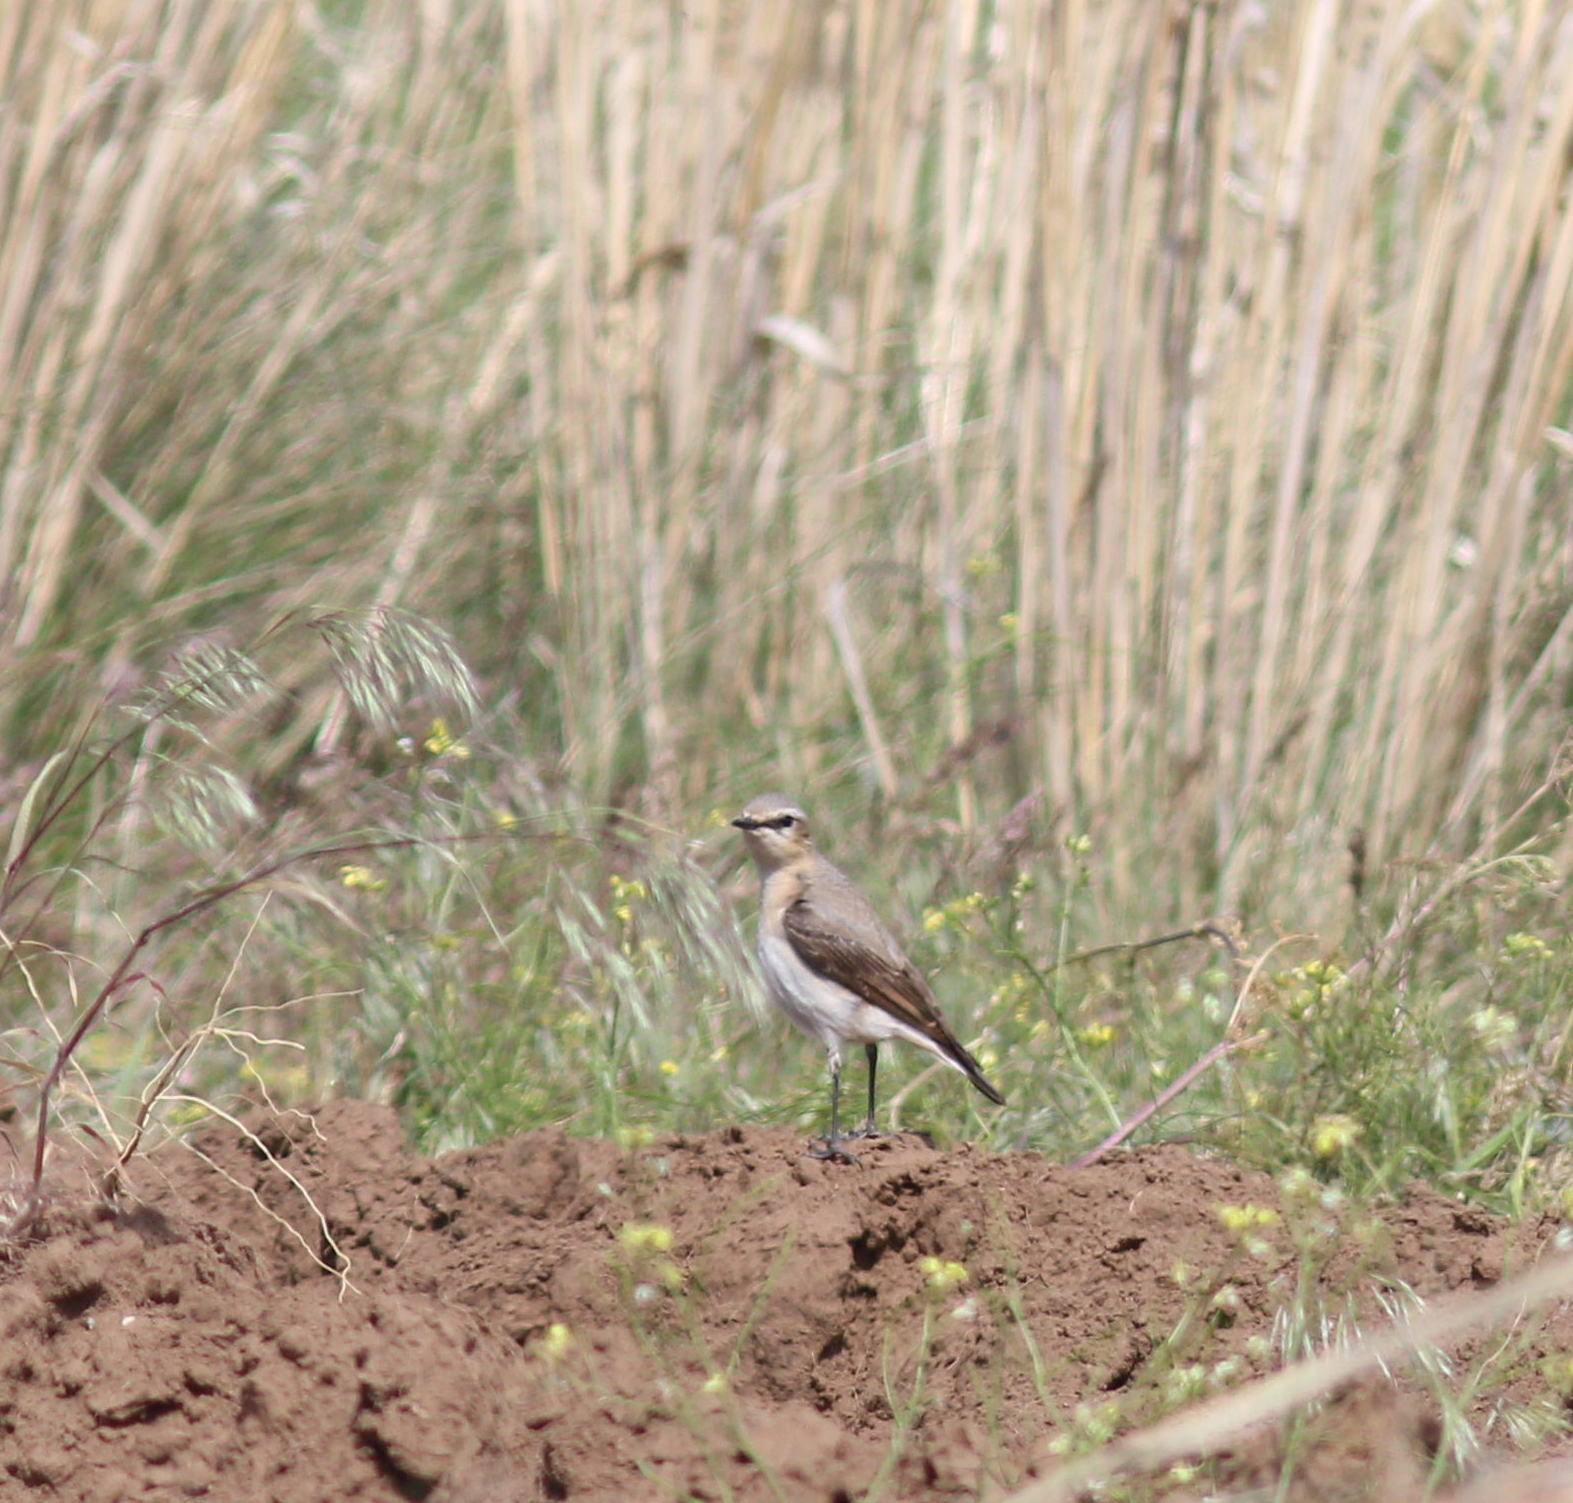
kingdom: Animalia
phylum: Chordata
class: Aves
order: Passeriformes
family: Muscicapidae
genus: Oenanthe
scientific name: Oenanthe oenanthe
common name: Northern wheatear
